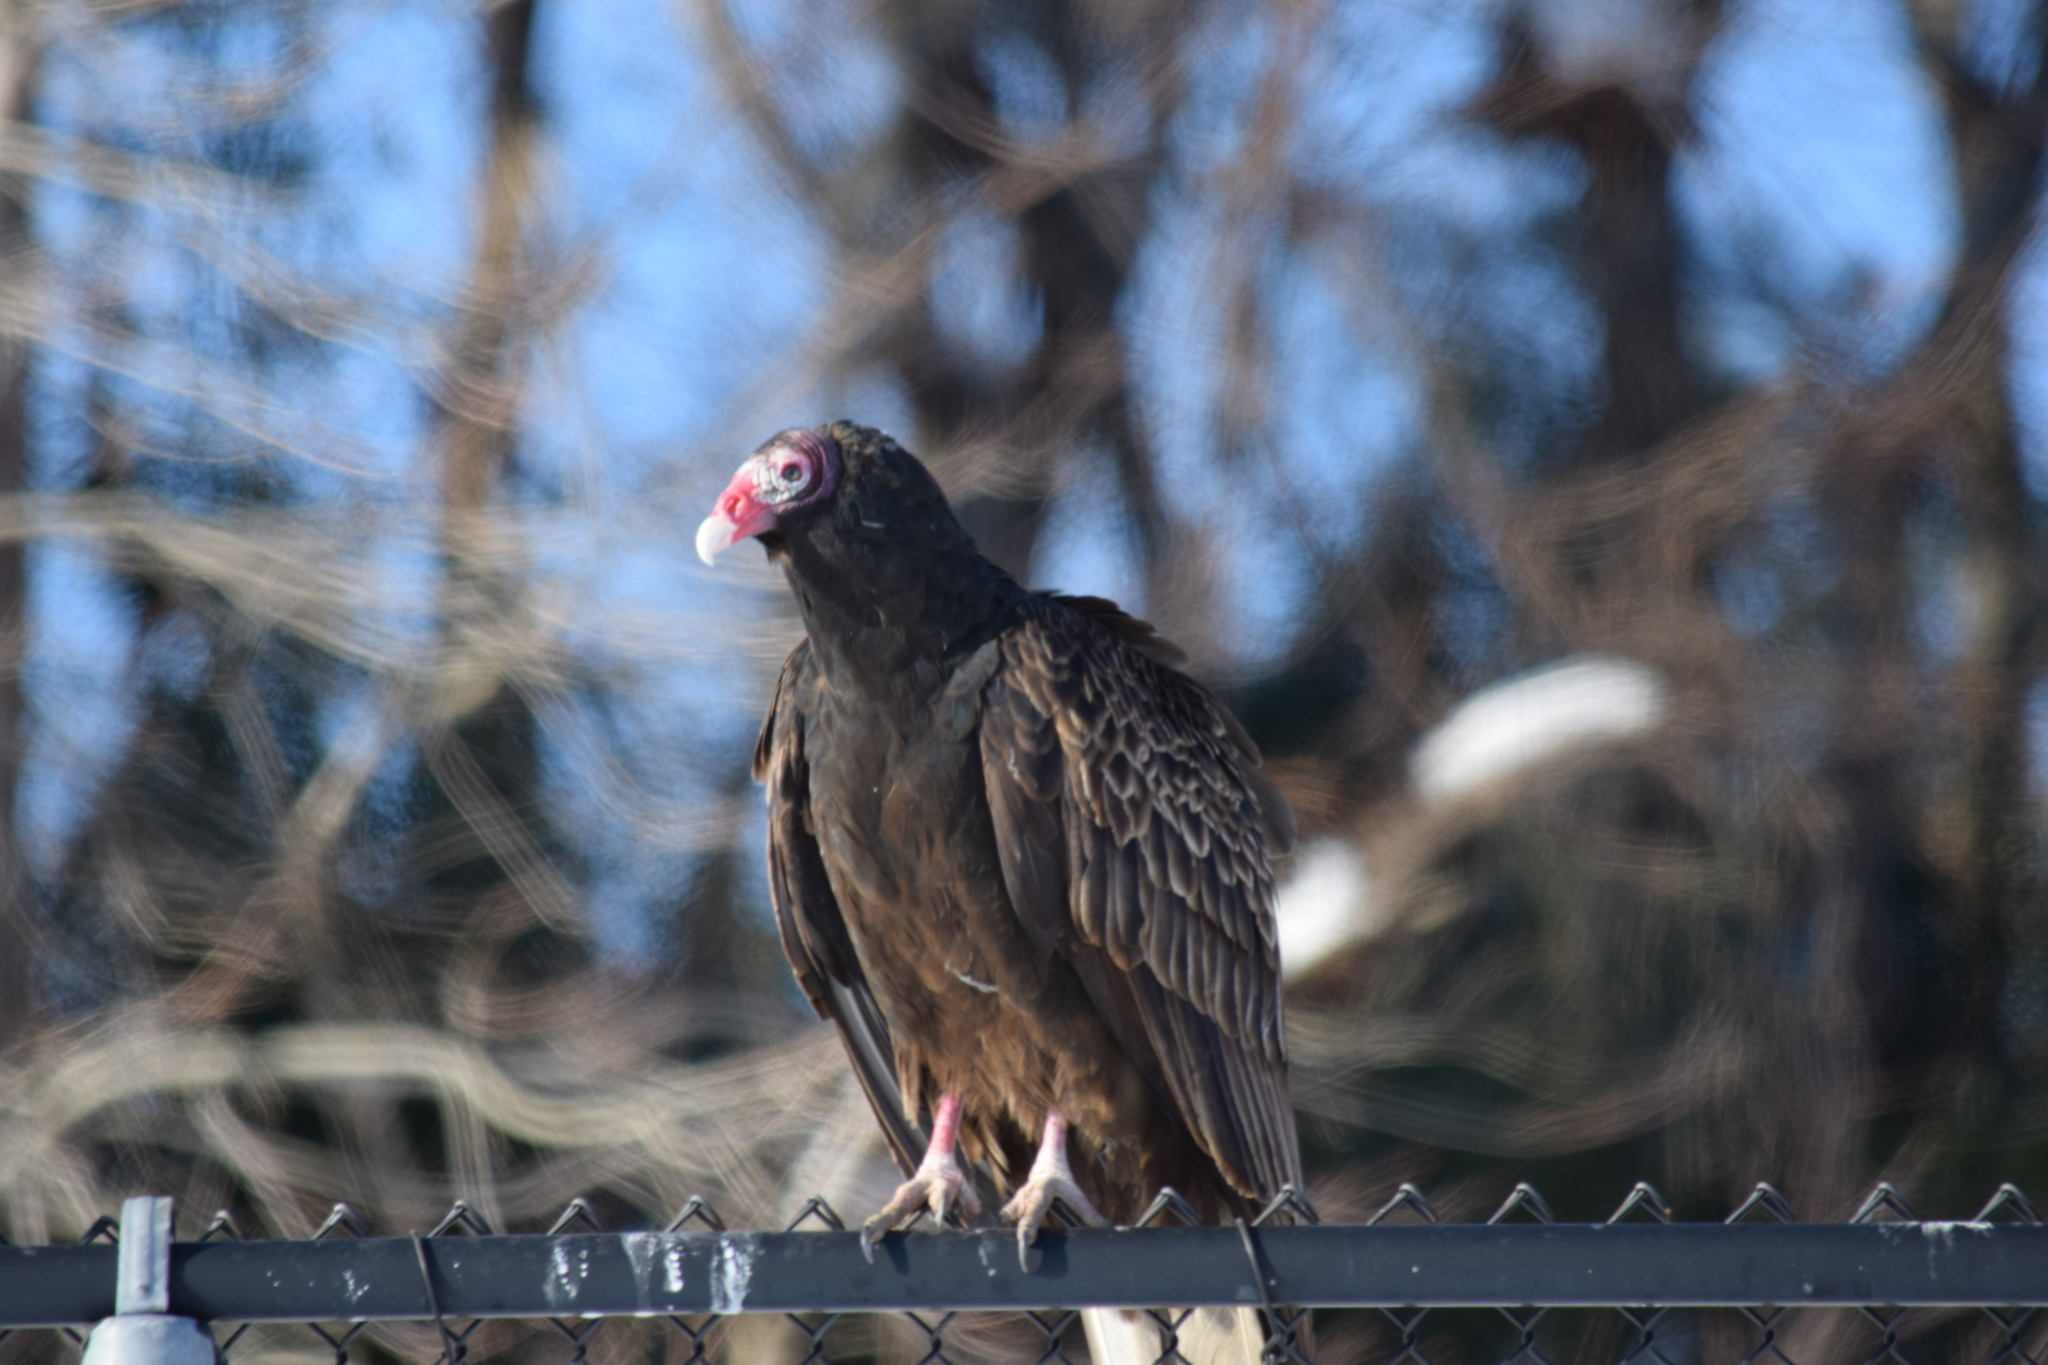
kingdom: Animalia
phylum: Chordata
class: Aves
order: Accipitriformes
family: Cathartidae
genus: Cathartes
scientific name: Cathartes aura
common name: Turkey vulture
